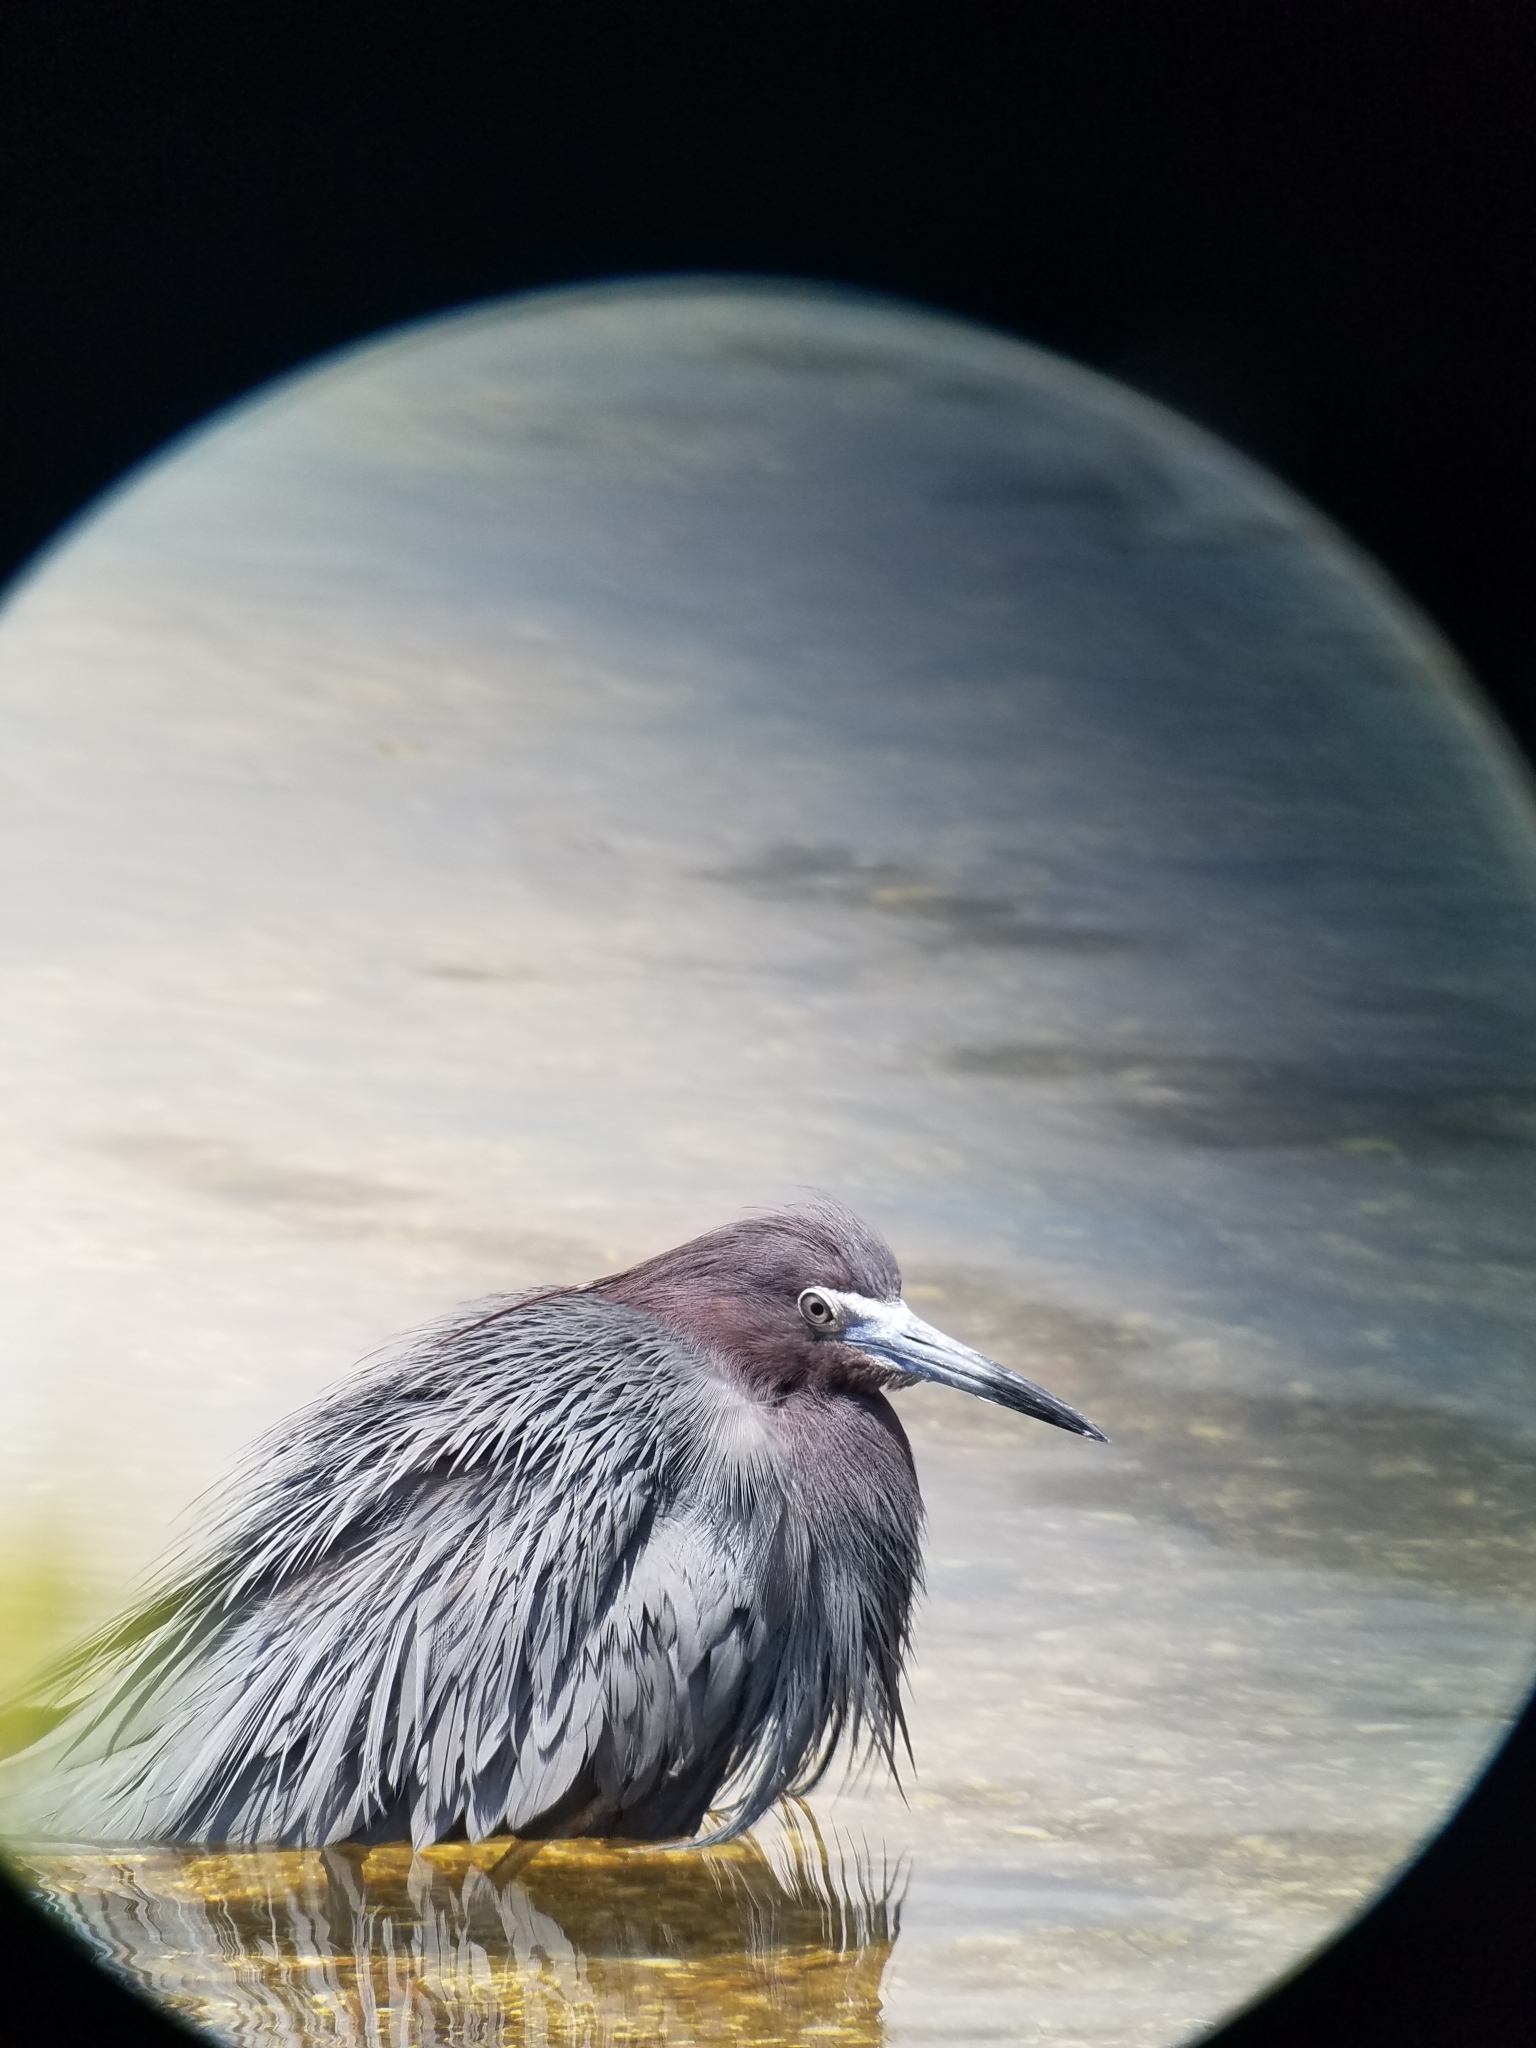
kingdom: Animalia
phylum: Chordata
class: Aves
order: Pelecaniformes
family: Ardeidae
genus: Egretta
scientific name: Egretta caerulea
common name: Little blue heron
